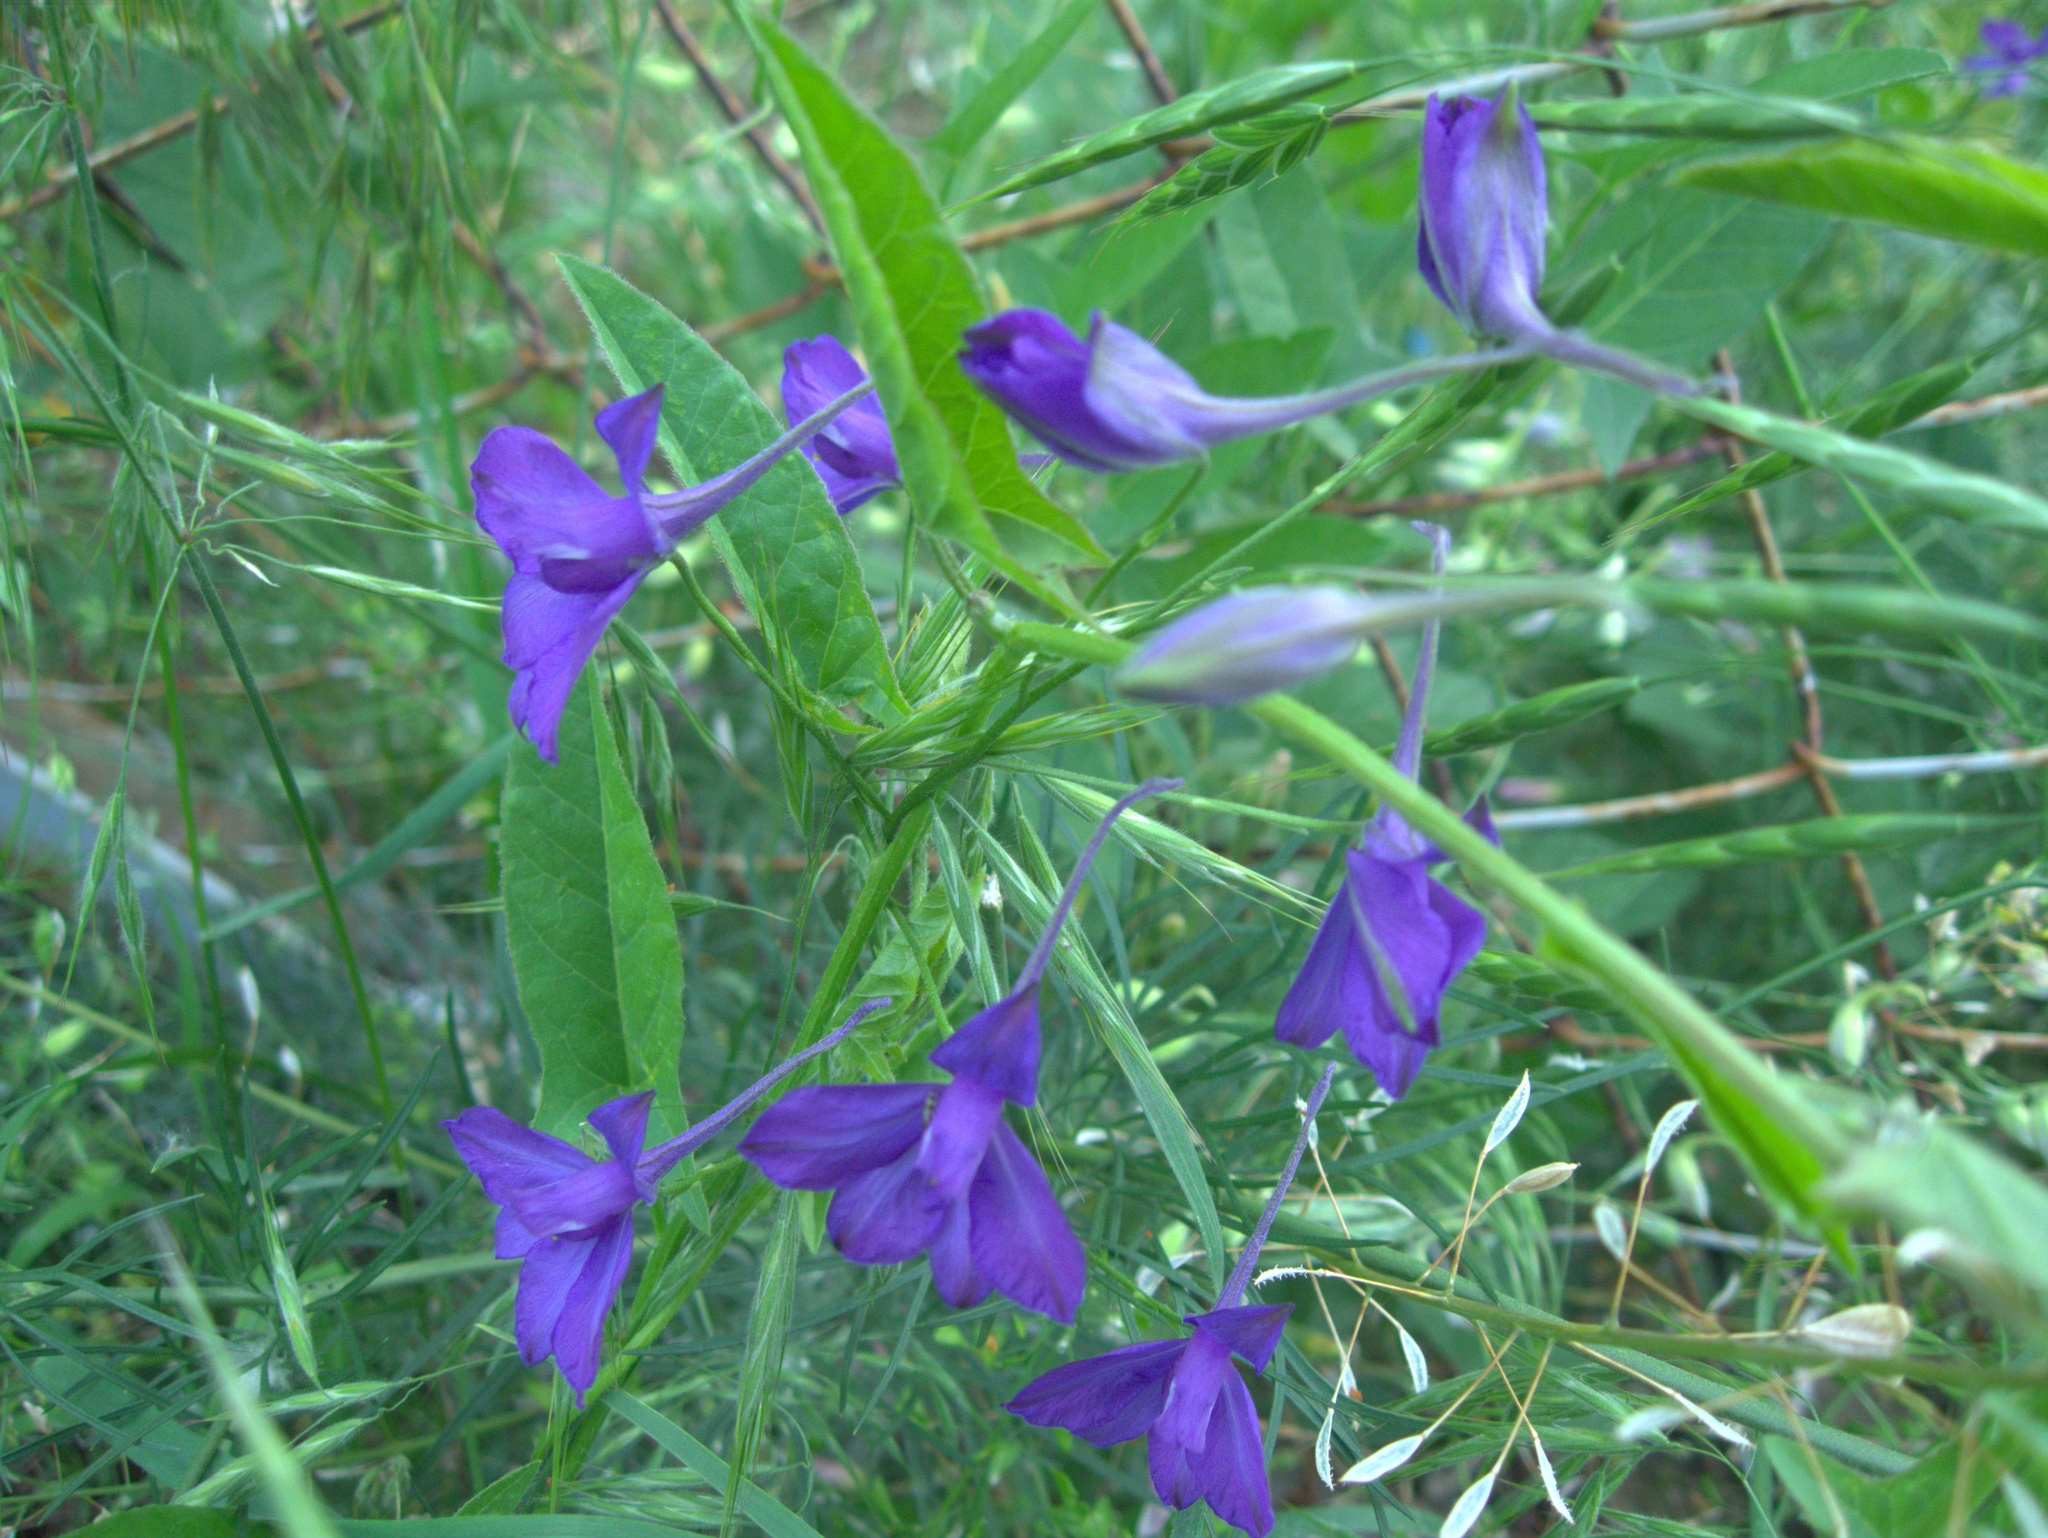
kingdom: Plantae
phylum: Tracheophyta
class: Magnoliopsida
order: Brassicales
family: Brassicaceae
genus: Capsella
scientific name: Capsella bursa-pastoris
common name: Shepherd's purse
